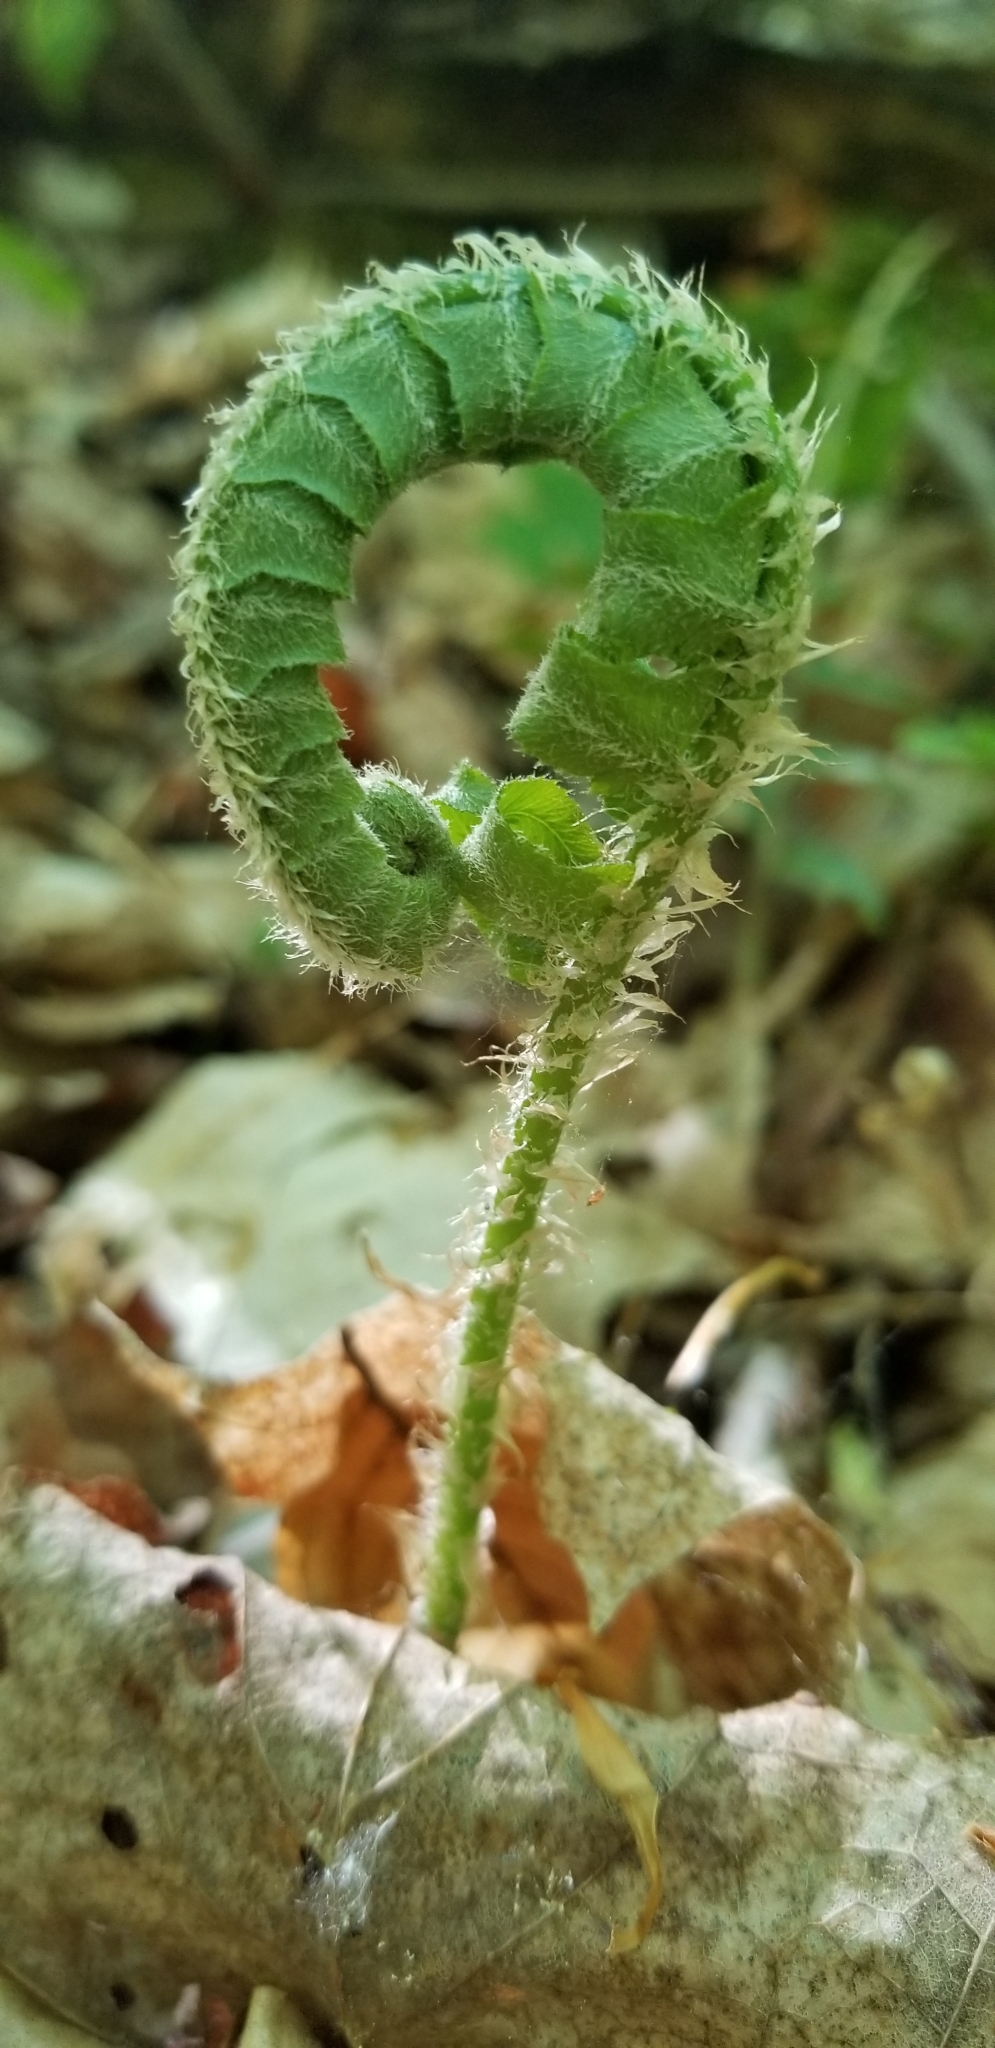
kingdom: Plantae
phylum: Tracheophyta
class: Polypodiopsida
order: Polypodiales
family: Dryopteridaceae
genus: Polystichum
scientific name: Polystichum acrostichoides
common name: Christmas fern
